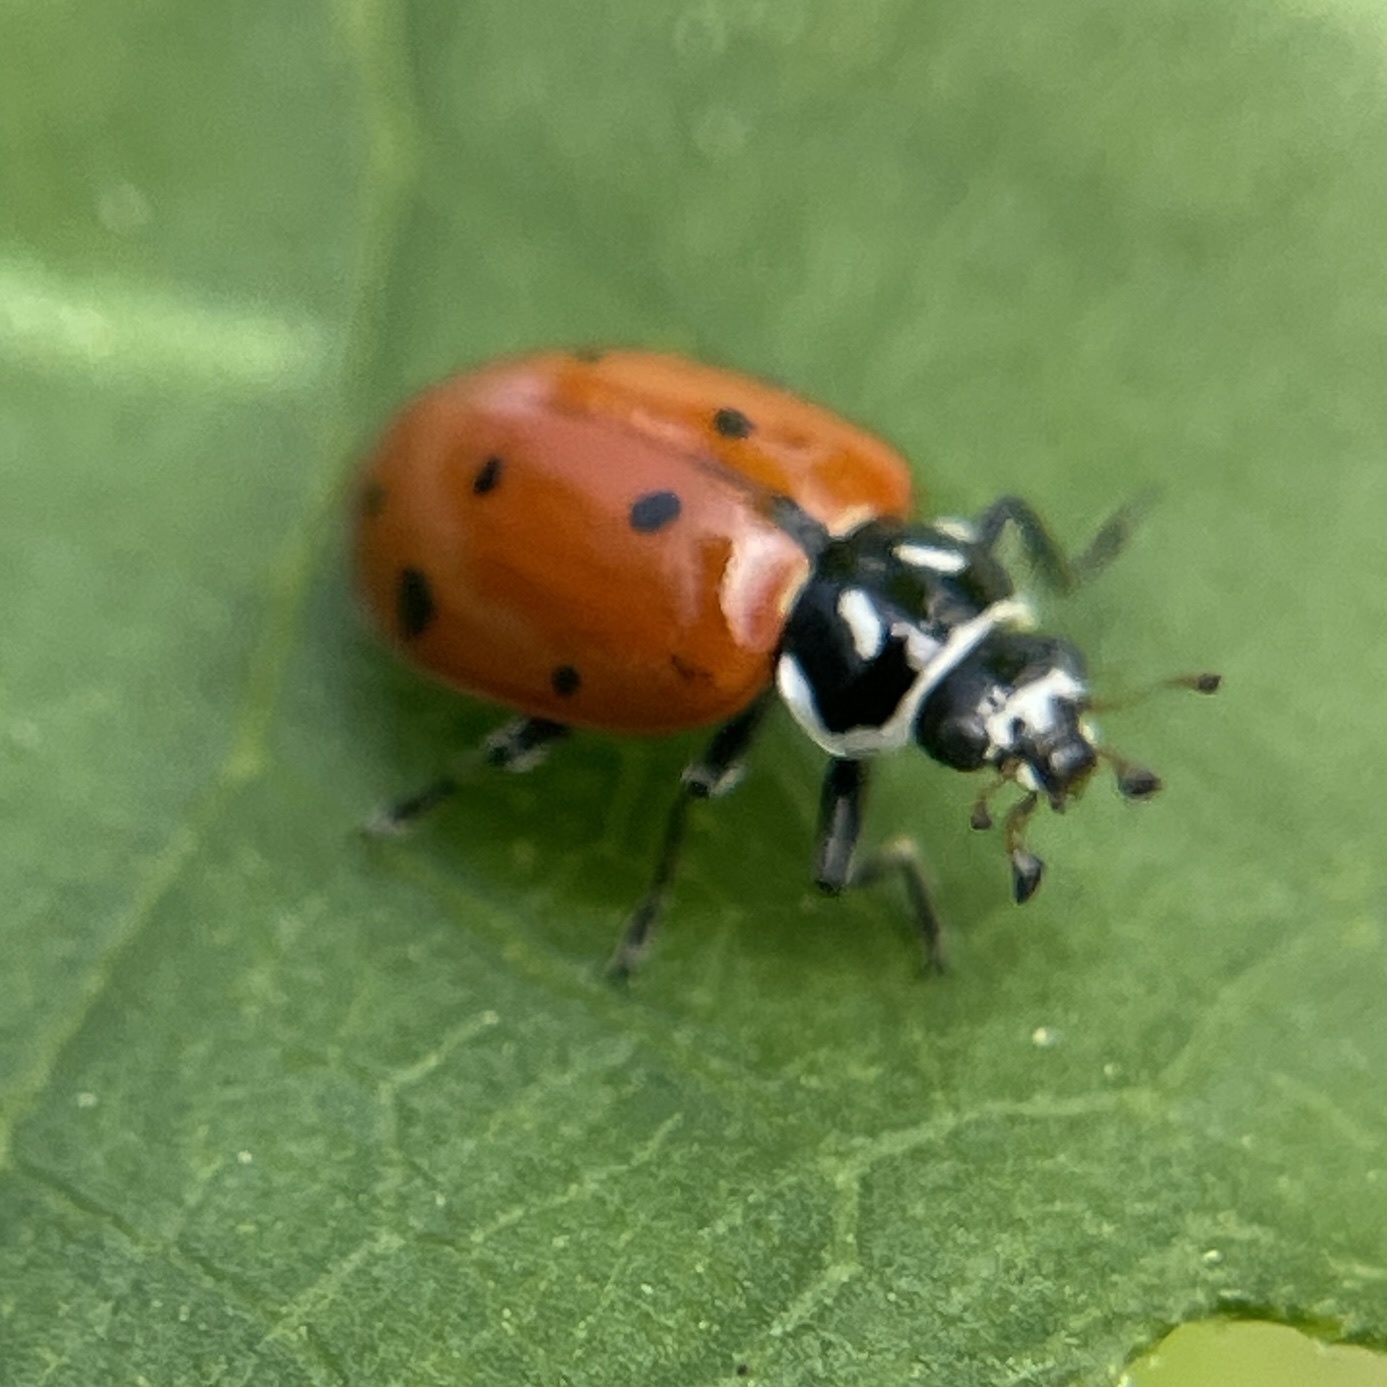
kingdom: Animalia
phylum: Arthropoda
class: Insecta
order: Coleoptera
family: Coccinellidae
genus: Hippodamia
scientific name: Hippodamia convergens
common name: Convergent lady beetle
